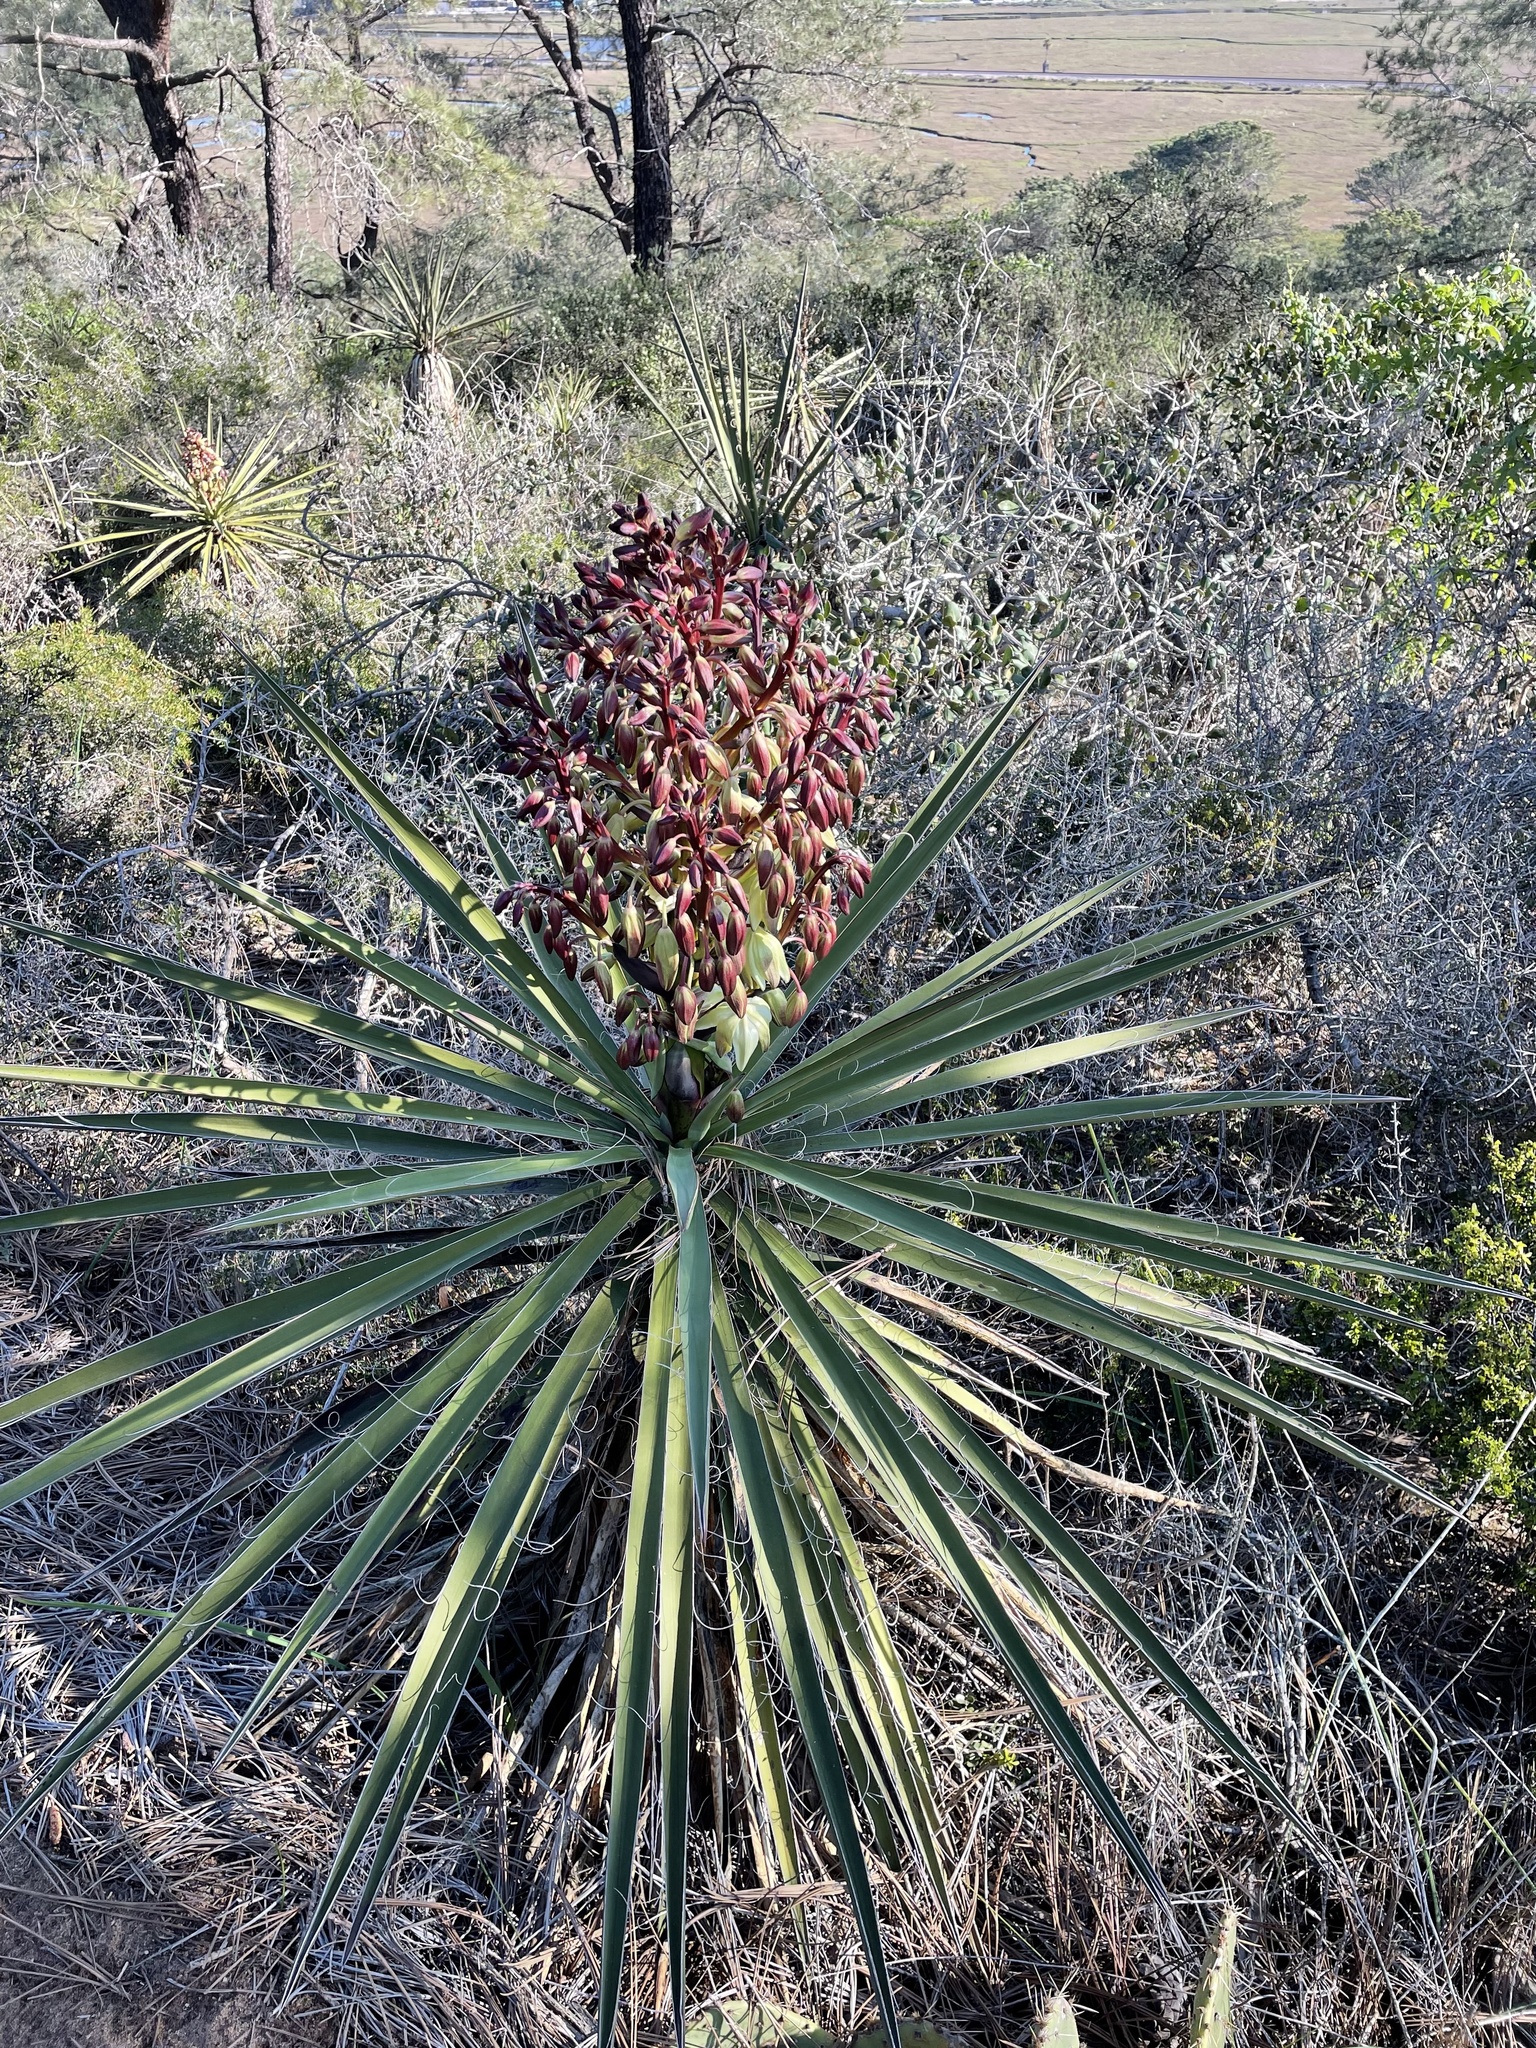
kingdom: Plantae
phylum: Tracheophyta
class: Liliopsida
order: Asparagales
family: Asparagaceae
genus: Yucca
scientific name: Yucca schidigera
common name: Mojave yucca
